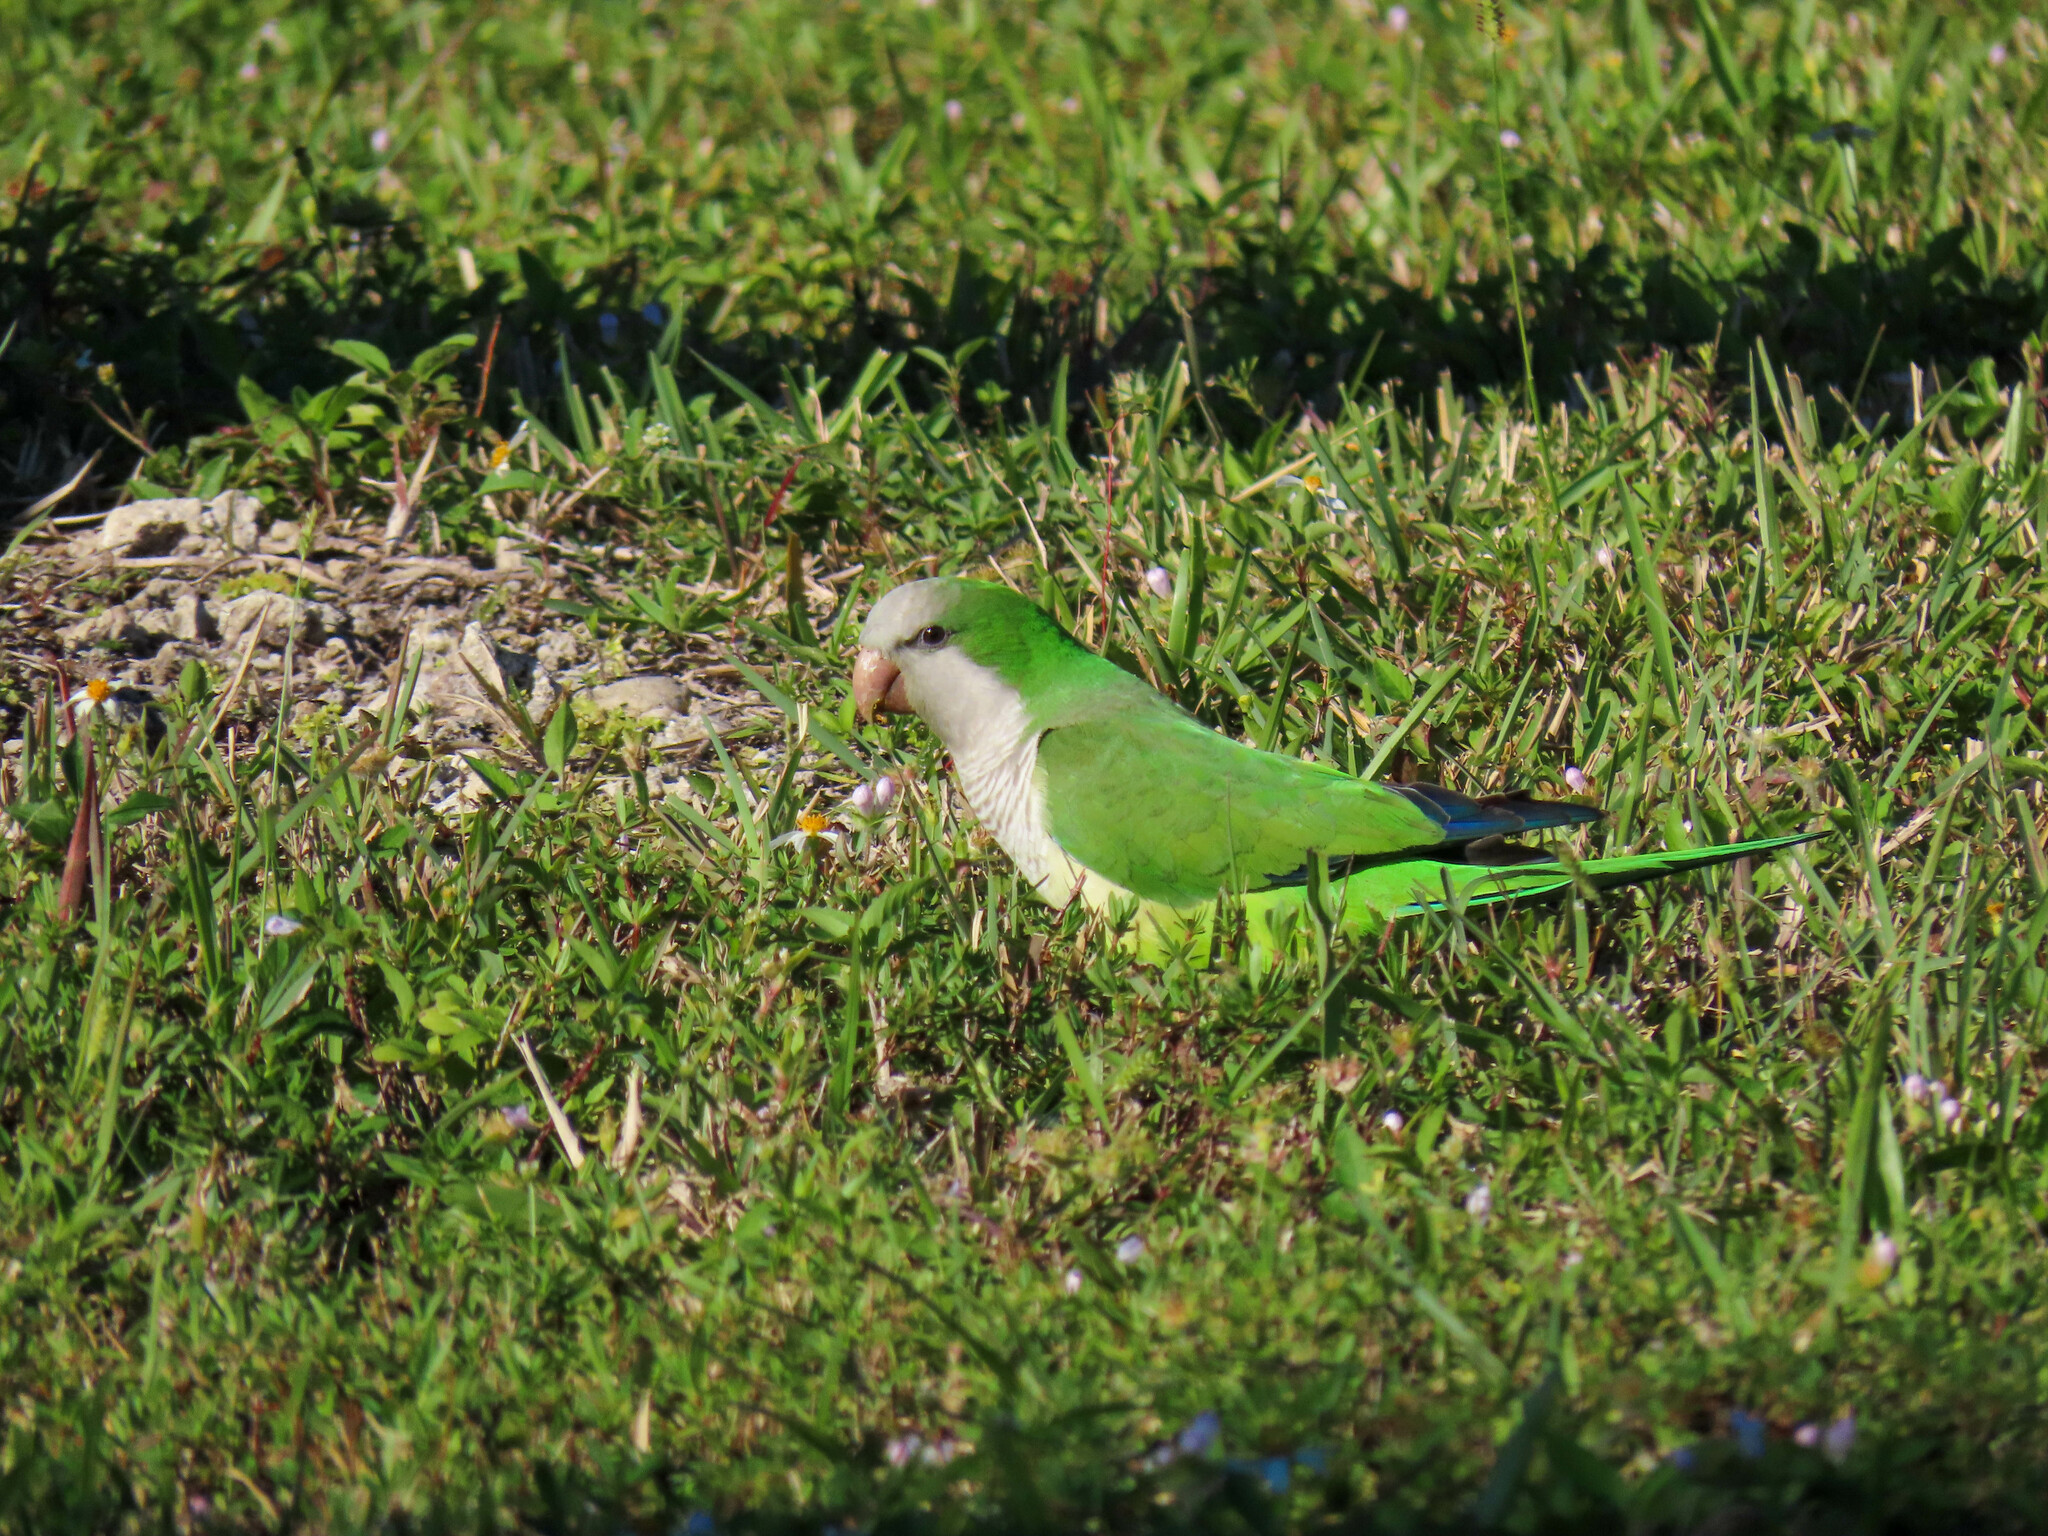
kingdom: Animalia
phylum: Chordata
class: Aves
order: Psittaciformes
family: Psittacidae
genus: Myiopsitta
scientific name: Myiopsitta monachus
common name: Monk parakeet
